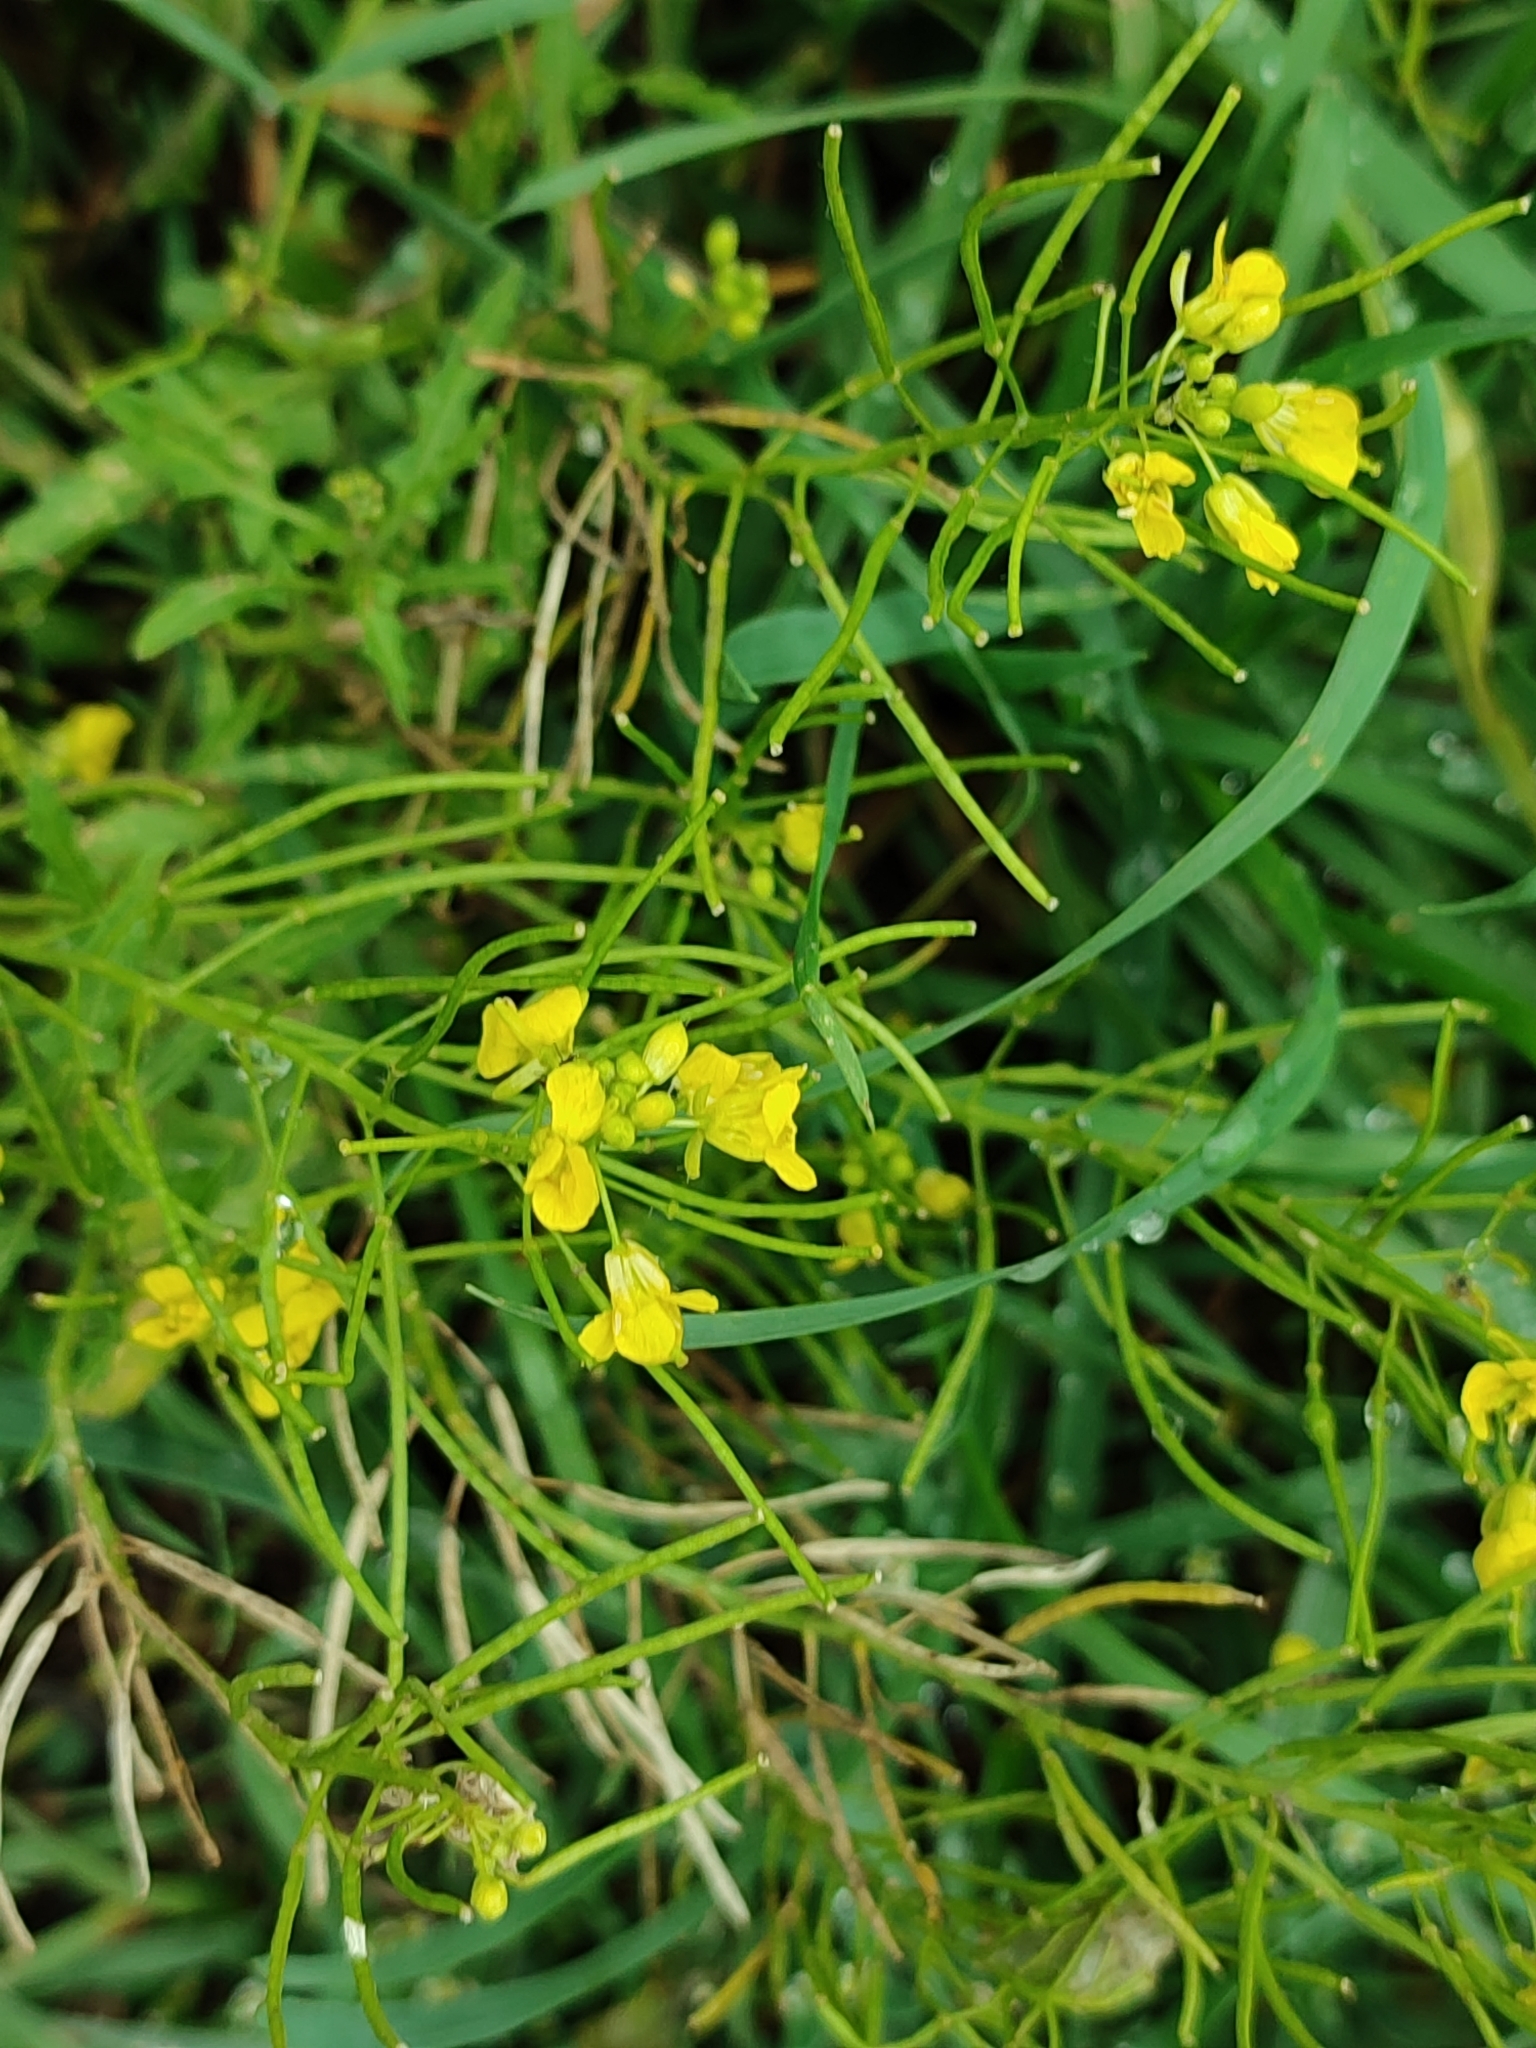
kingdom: Plantae
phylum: Tracheophyta
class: Magnoliopsida
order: Brassicales
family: Brassicaceae
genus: Sisymbrium
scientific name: Sisymbrium loeselii
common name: False london-rocket
